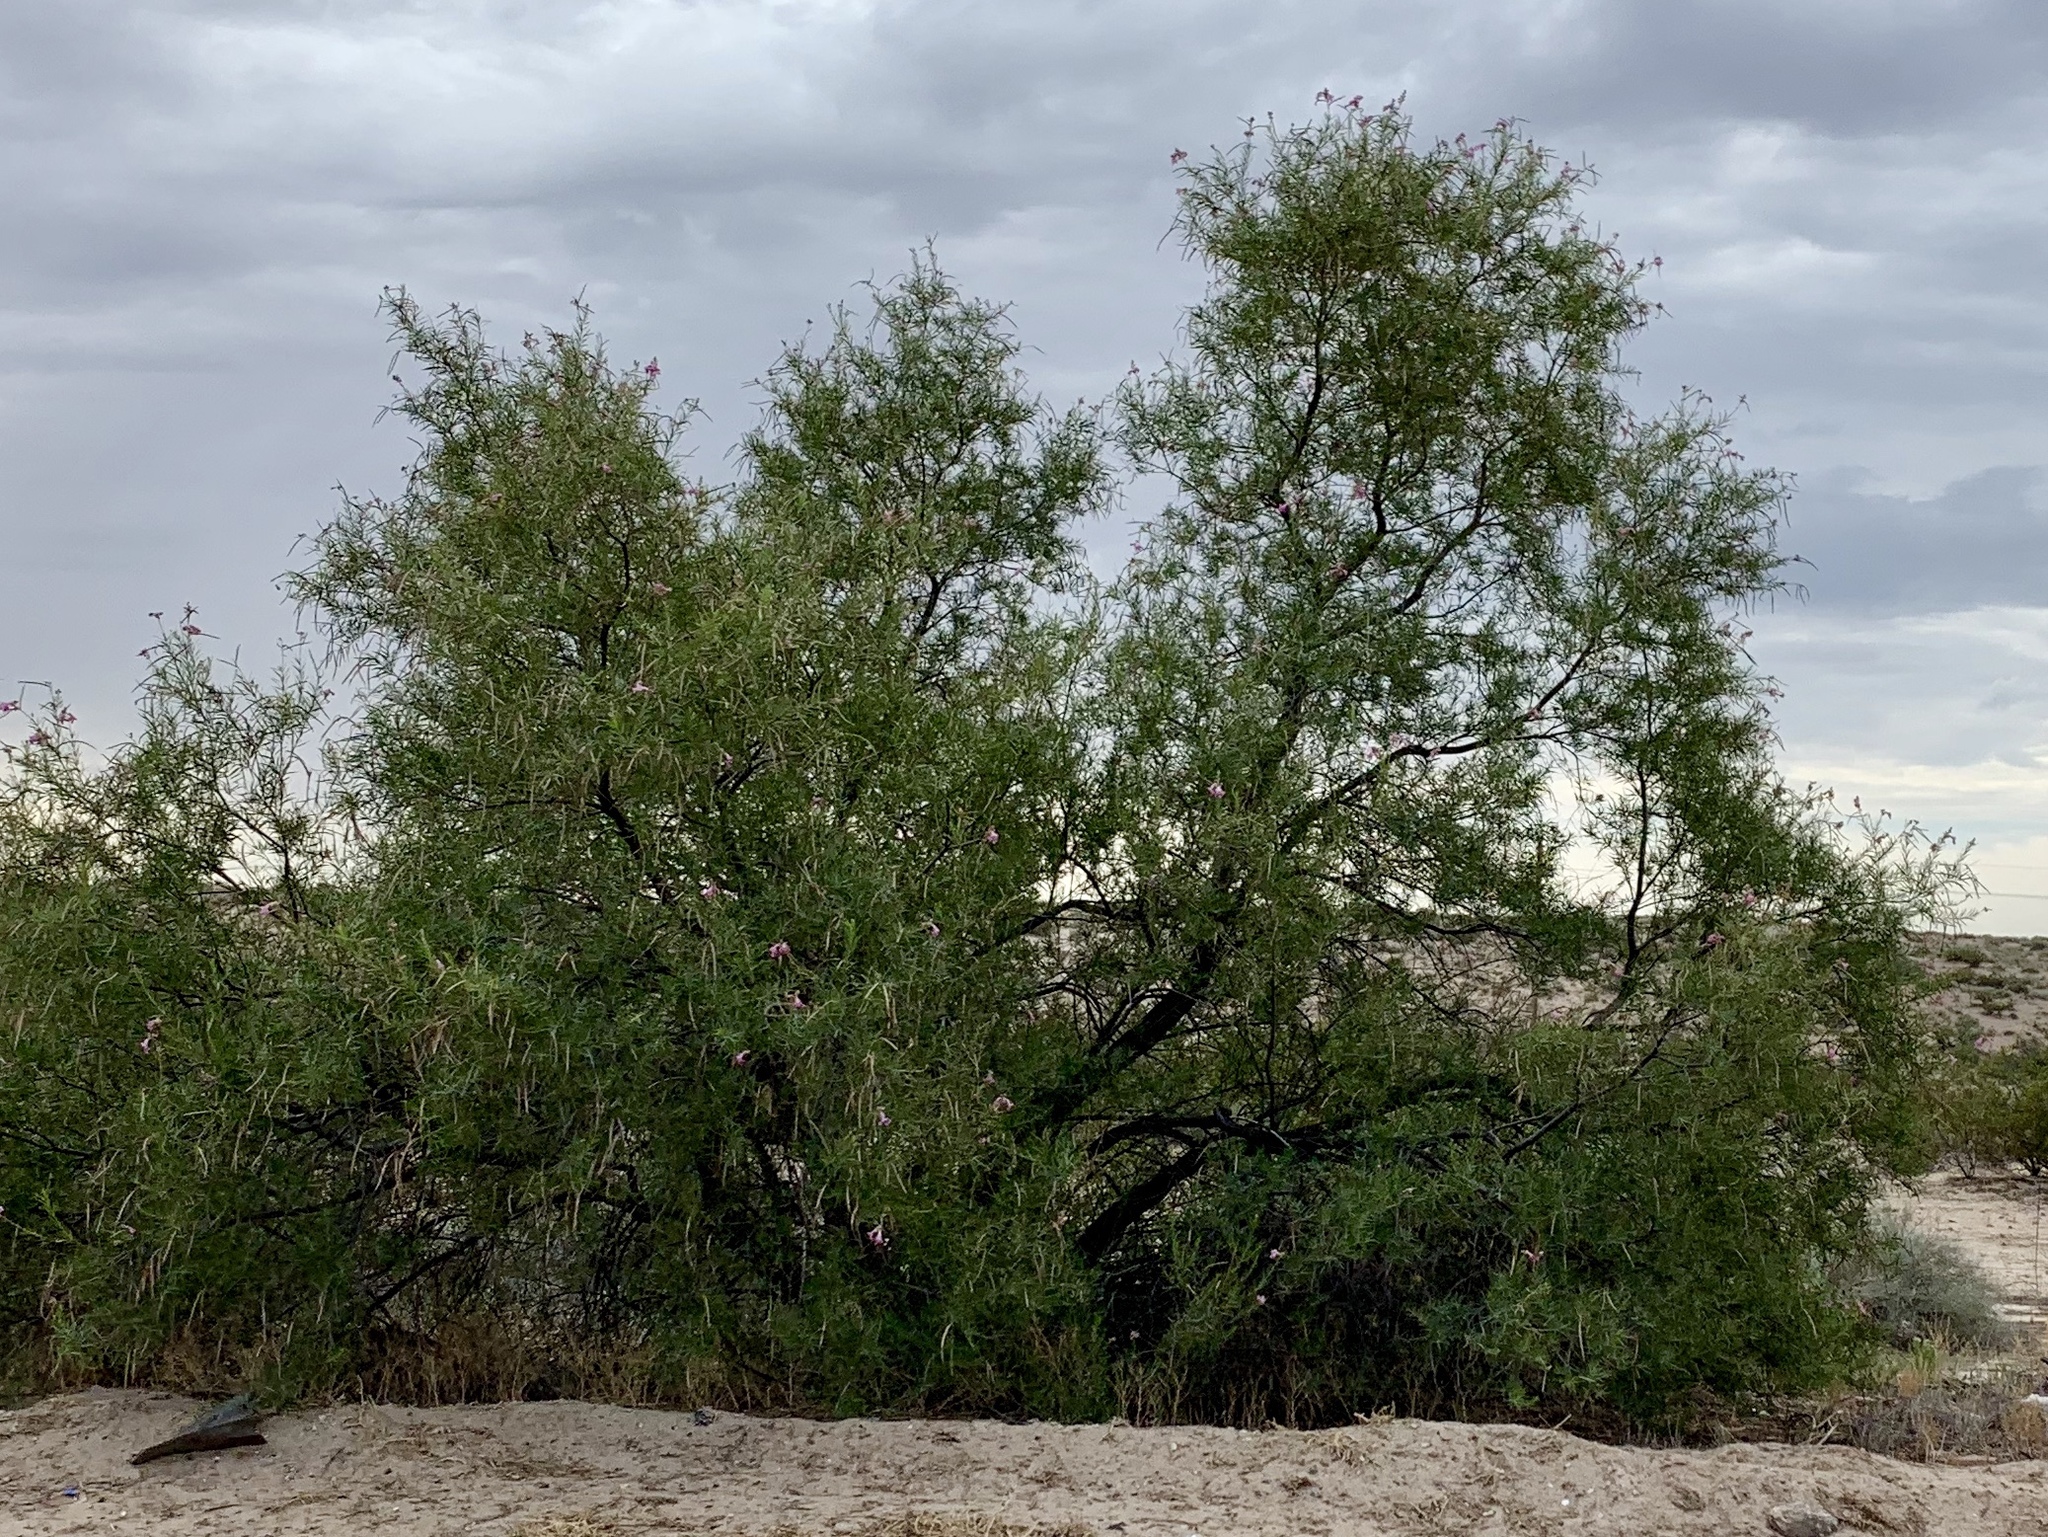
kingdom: Plantae
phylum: Tracheophyta
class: Magnoliopsida
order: Lamiales
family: Bignoniaceae
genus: Chilopsis
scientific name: Chilopsis linearis
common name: Desert-willow
